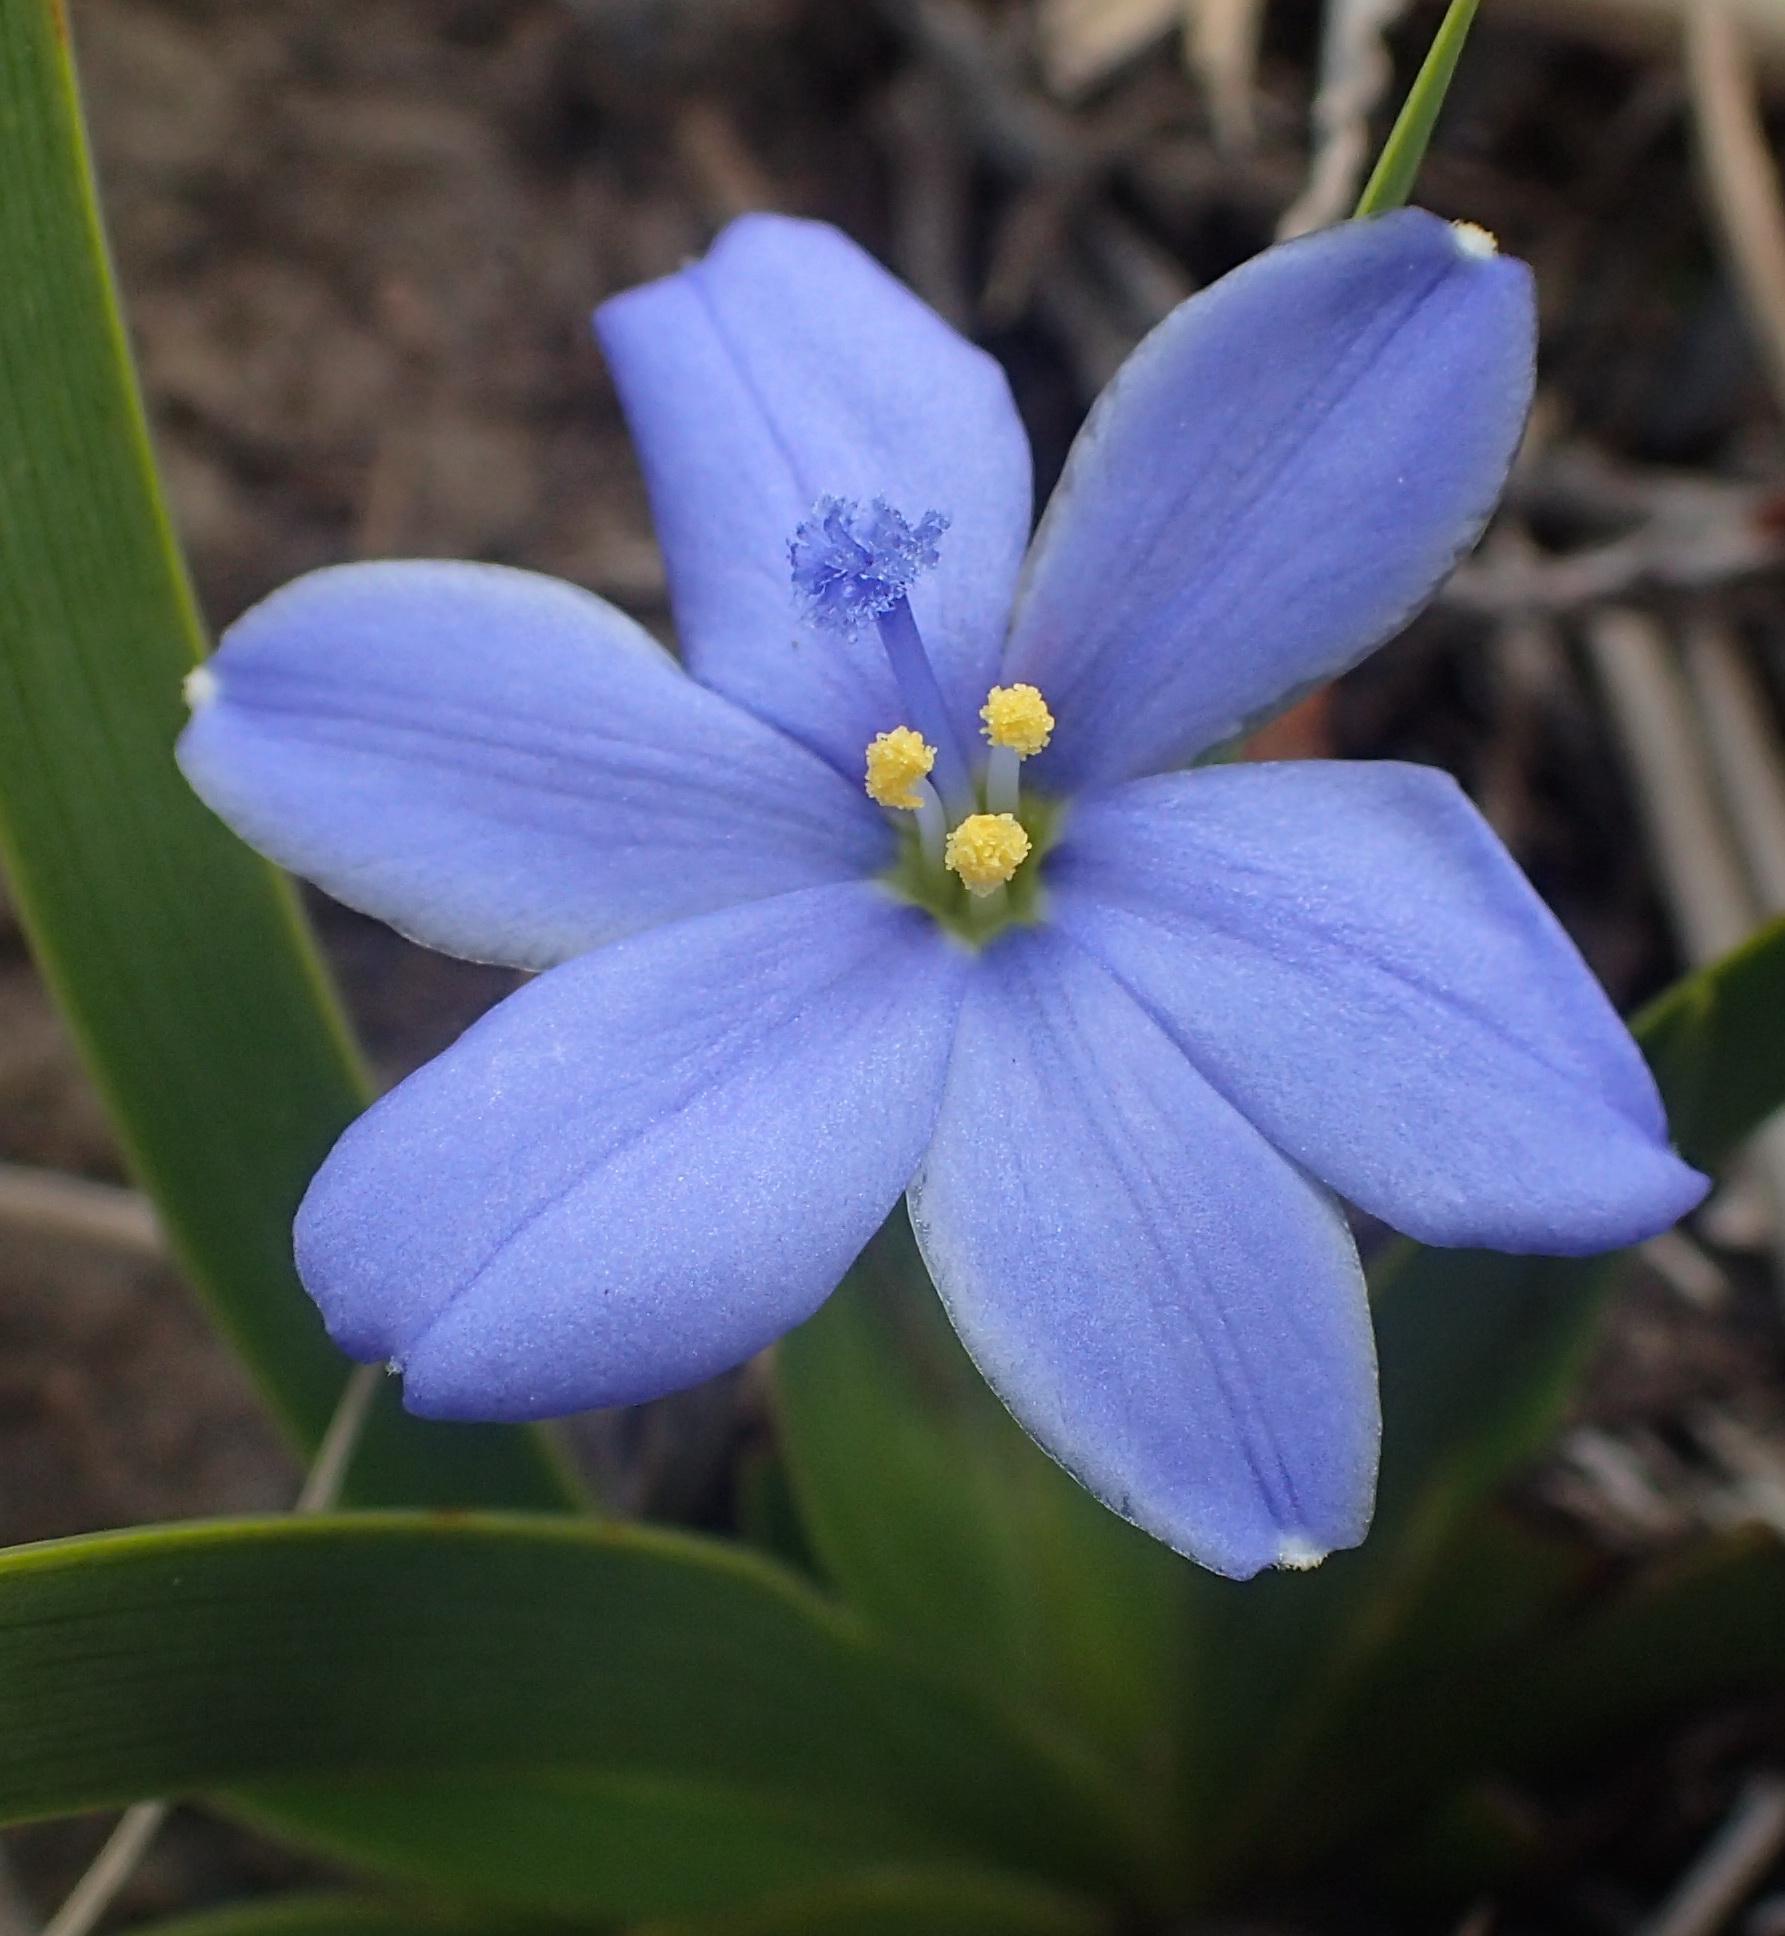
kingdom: Plantae
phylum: Tracheophyta
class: Liliopsida
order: Asparagales
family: Iridaceae
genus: Aristea
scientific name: Aristea pusilla
